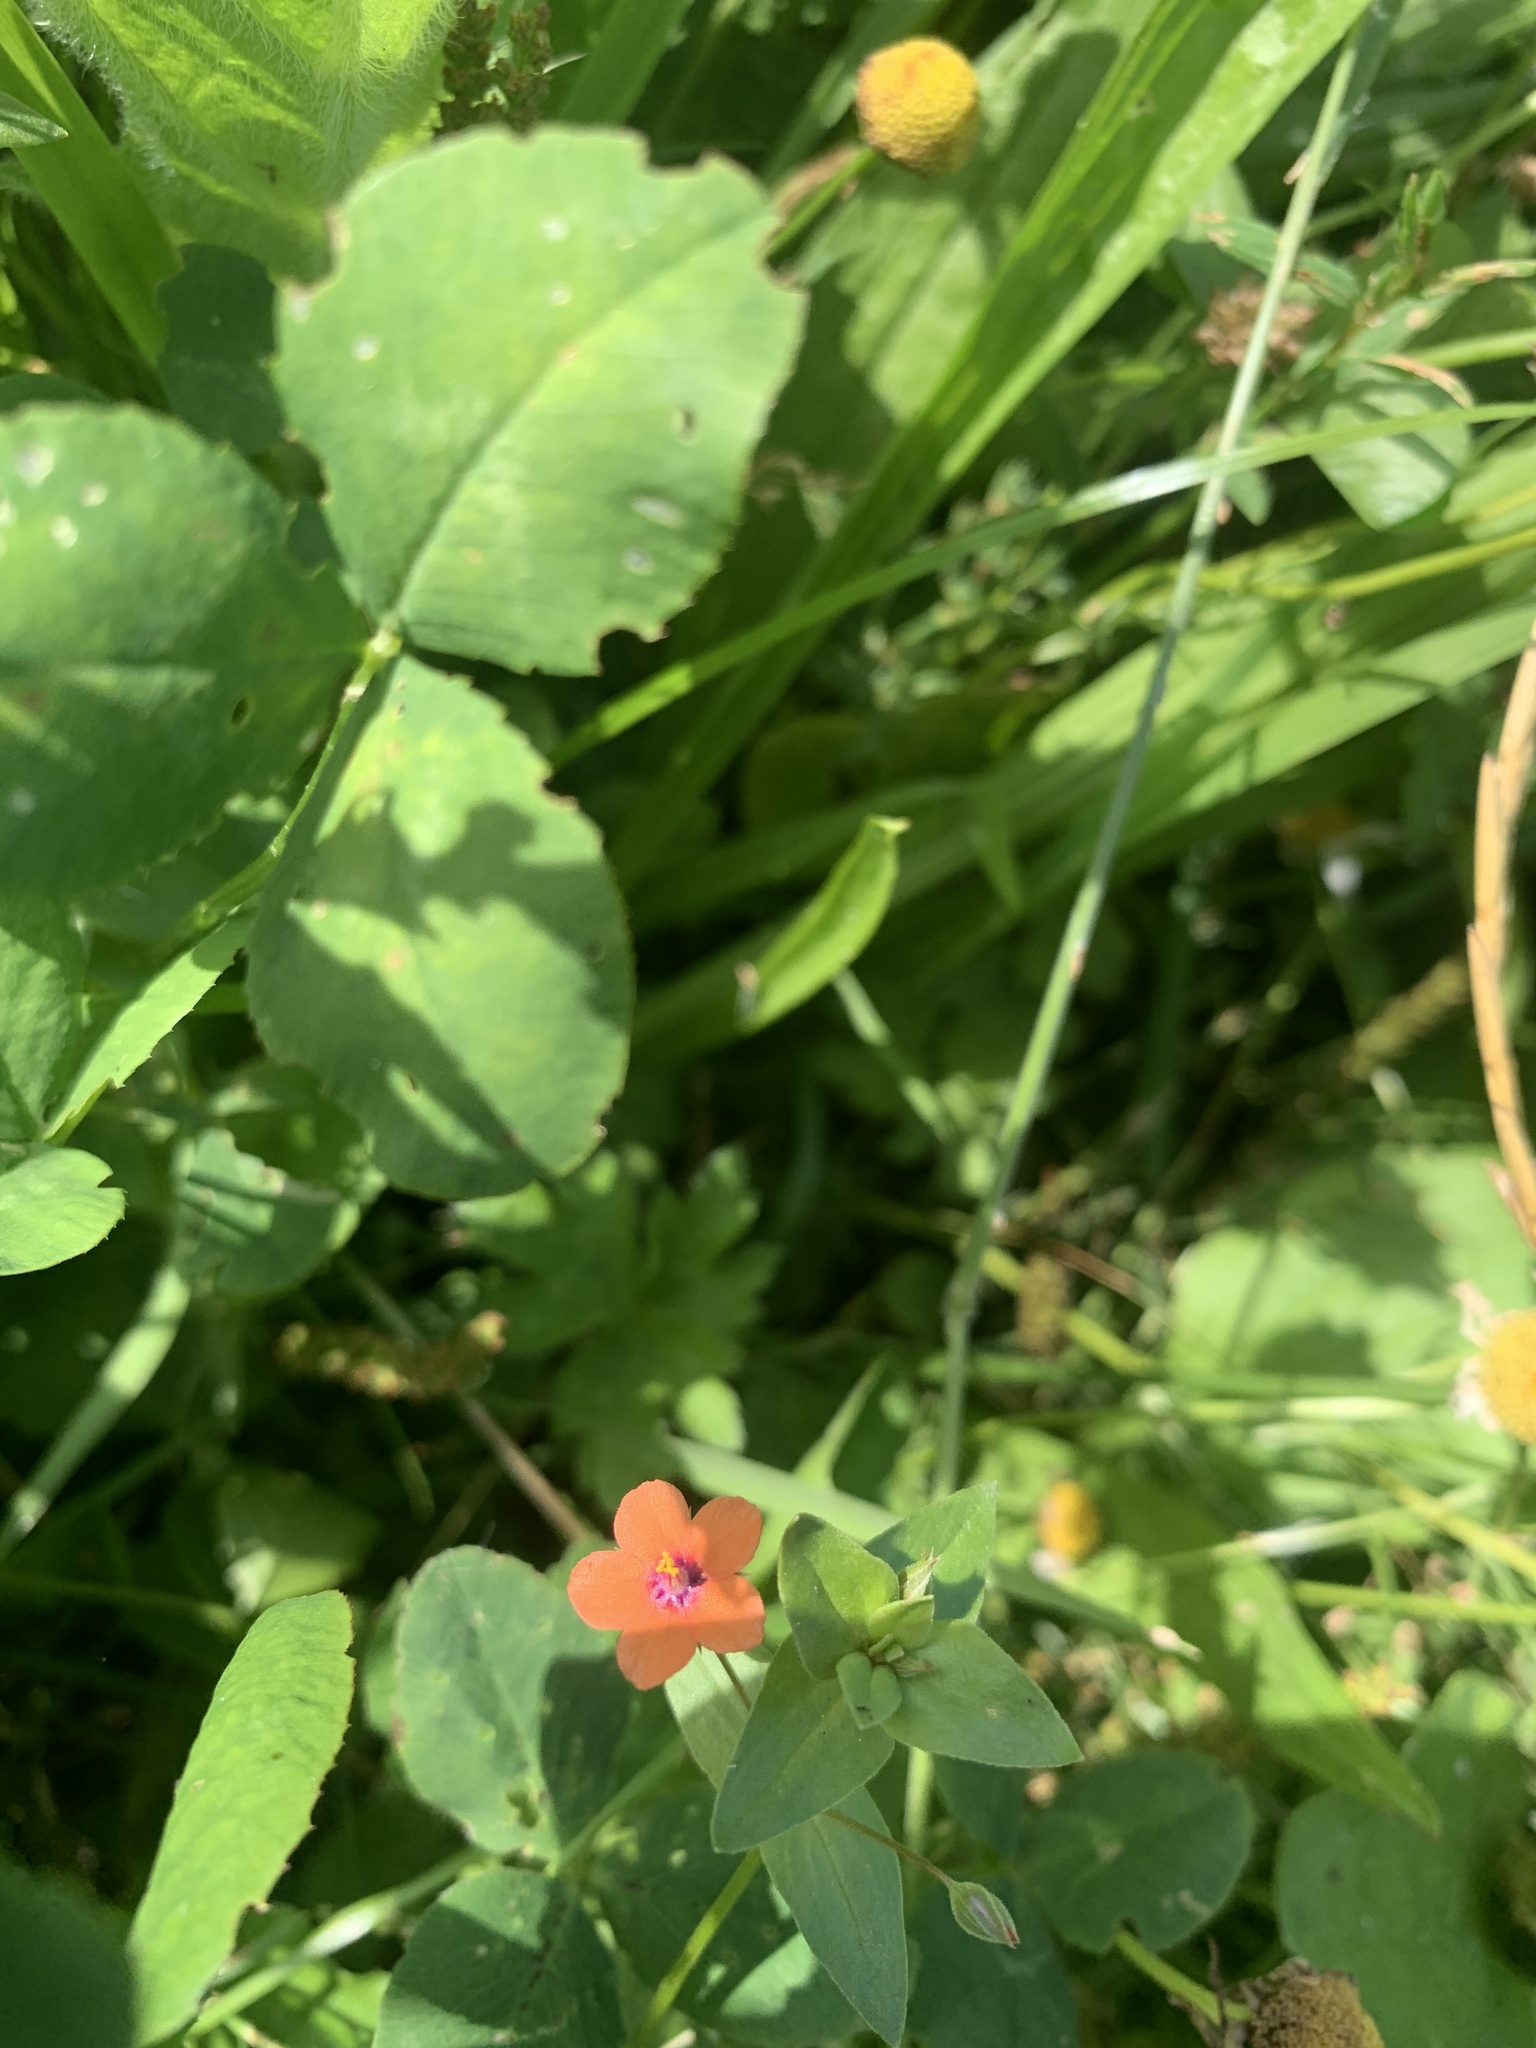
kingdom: Plantae
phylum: Tracheophyta
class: Magnoliopsida
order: Ericales
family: Primulaceae
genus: Lysimachia
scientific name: Lysimachia arvensis
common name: Scarlet pimpernel
